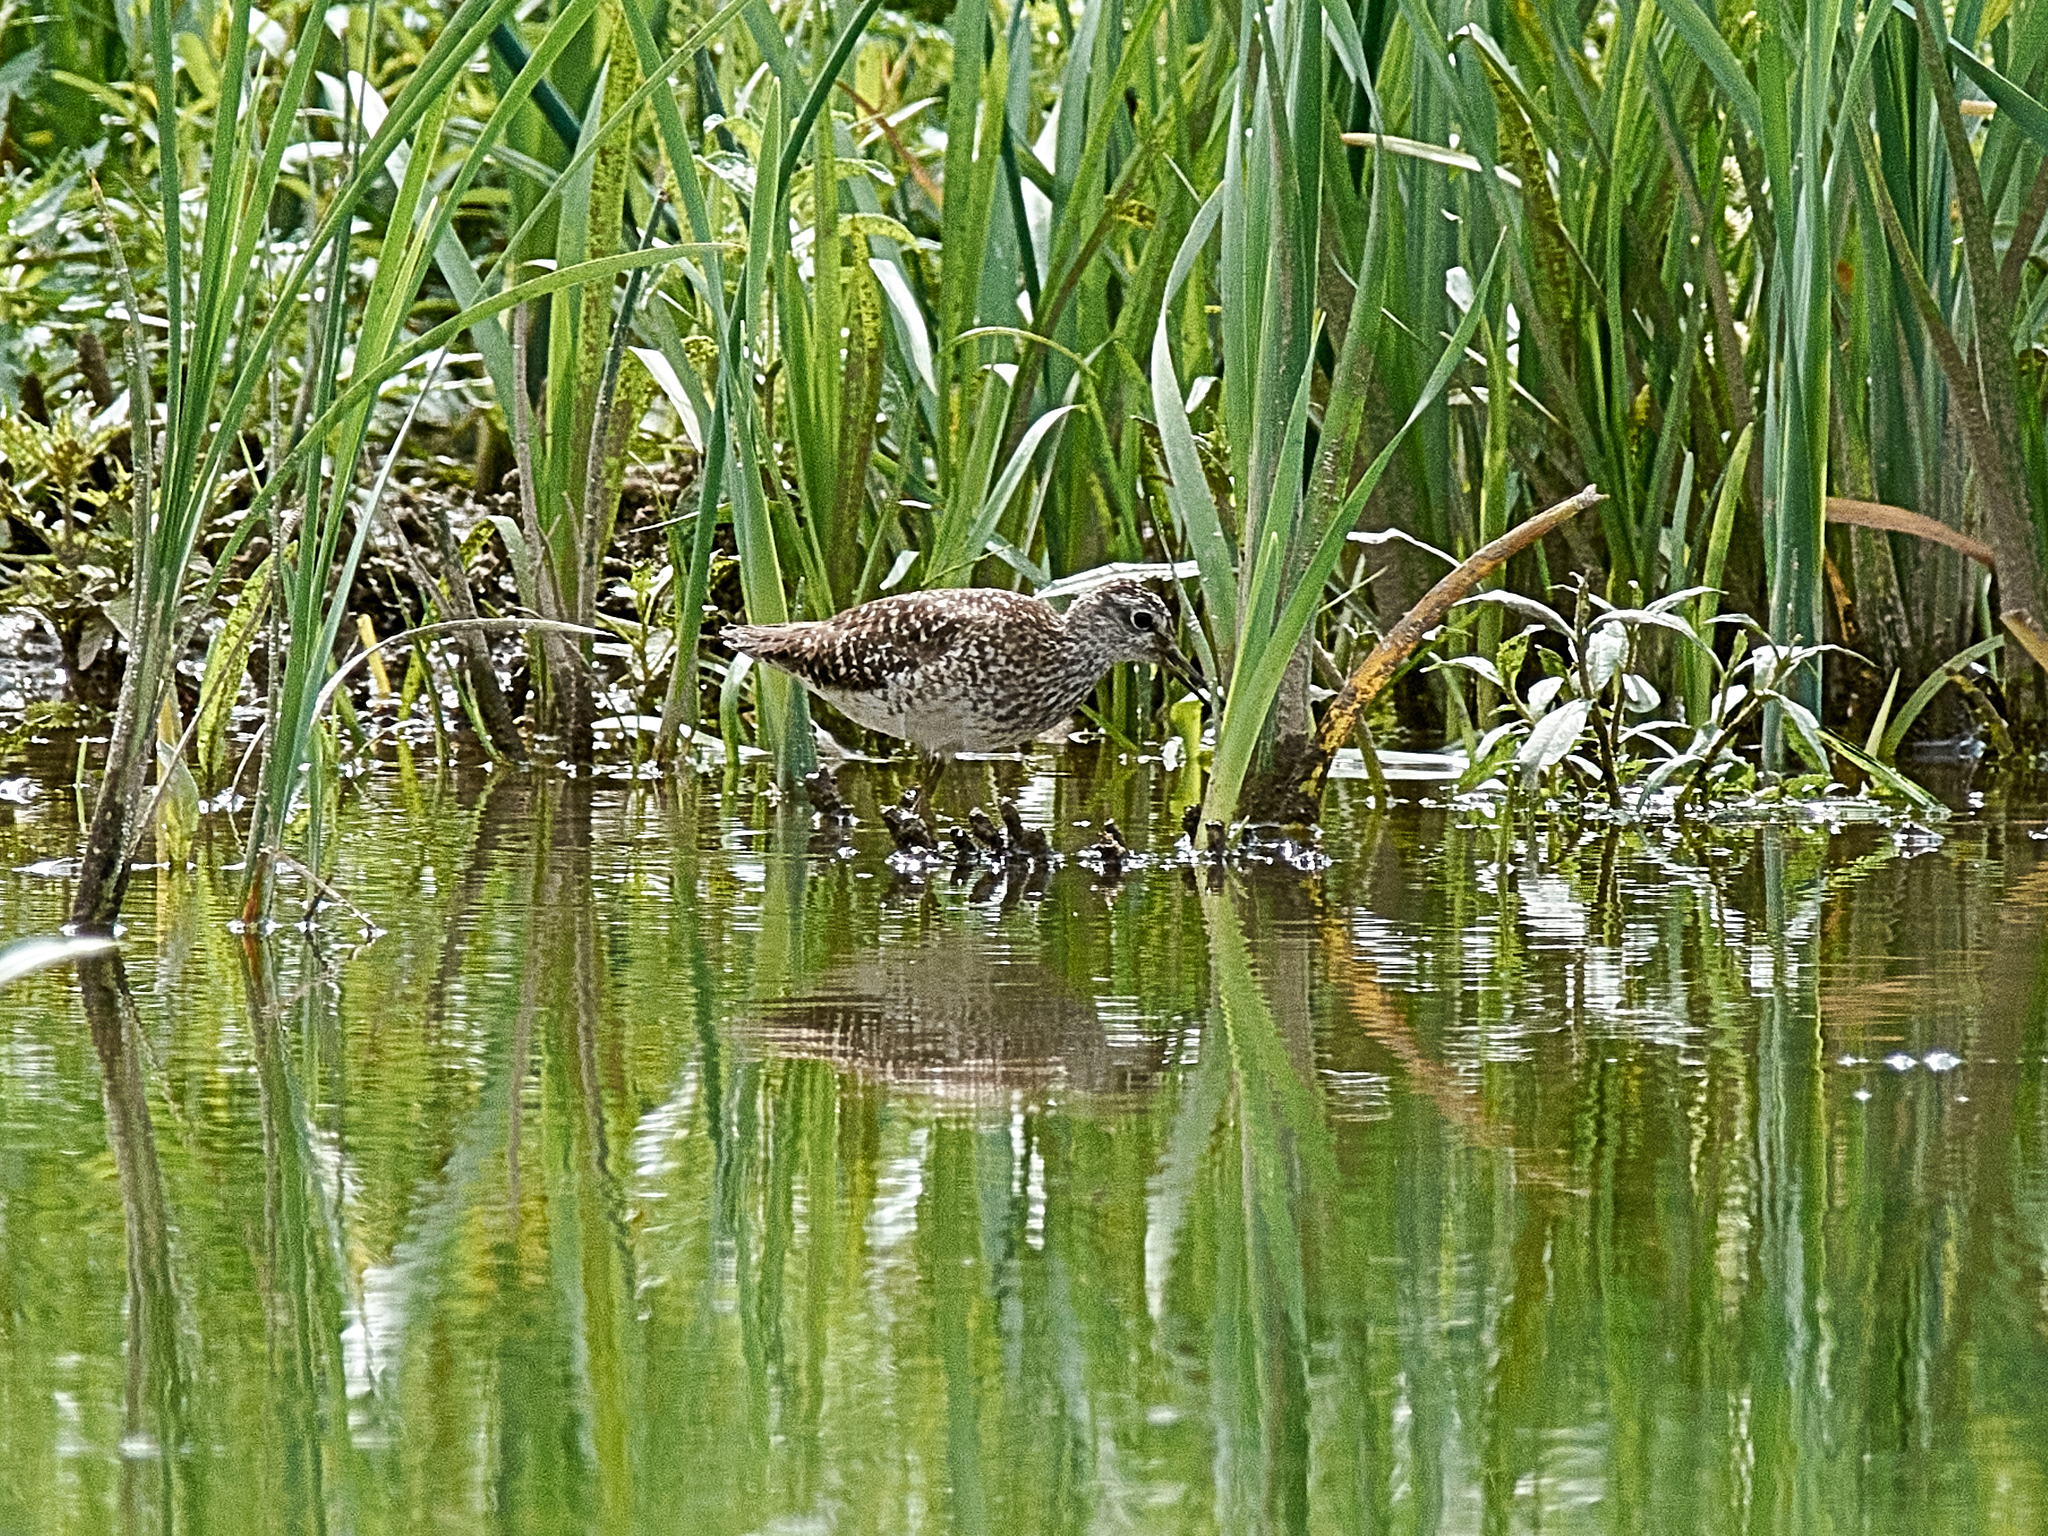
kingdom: Animalia
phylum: Chordata
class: Aves
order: Charadriiformes
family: Scolopacidae
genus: Tringa
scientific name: Tringa glareola
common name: Wood sandpiper
